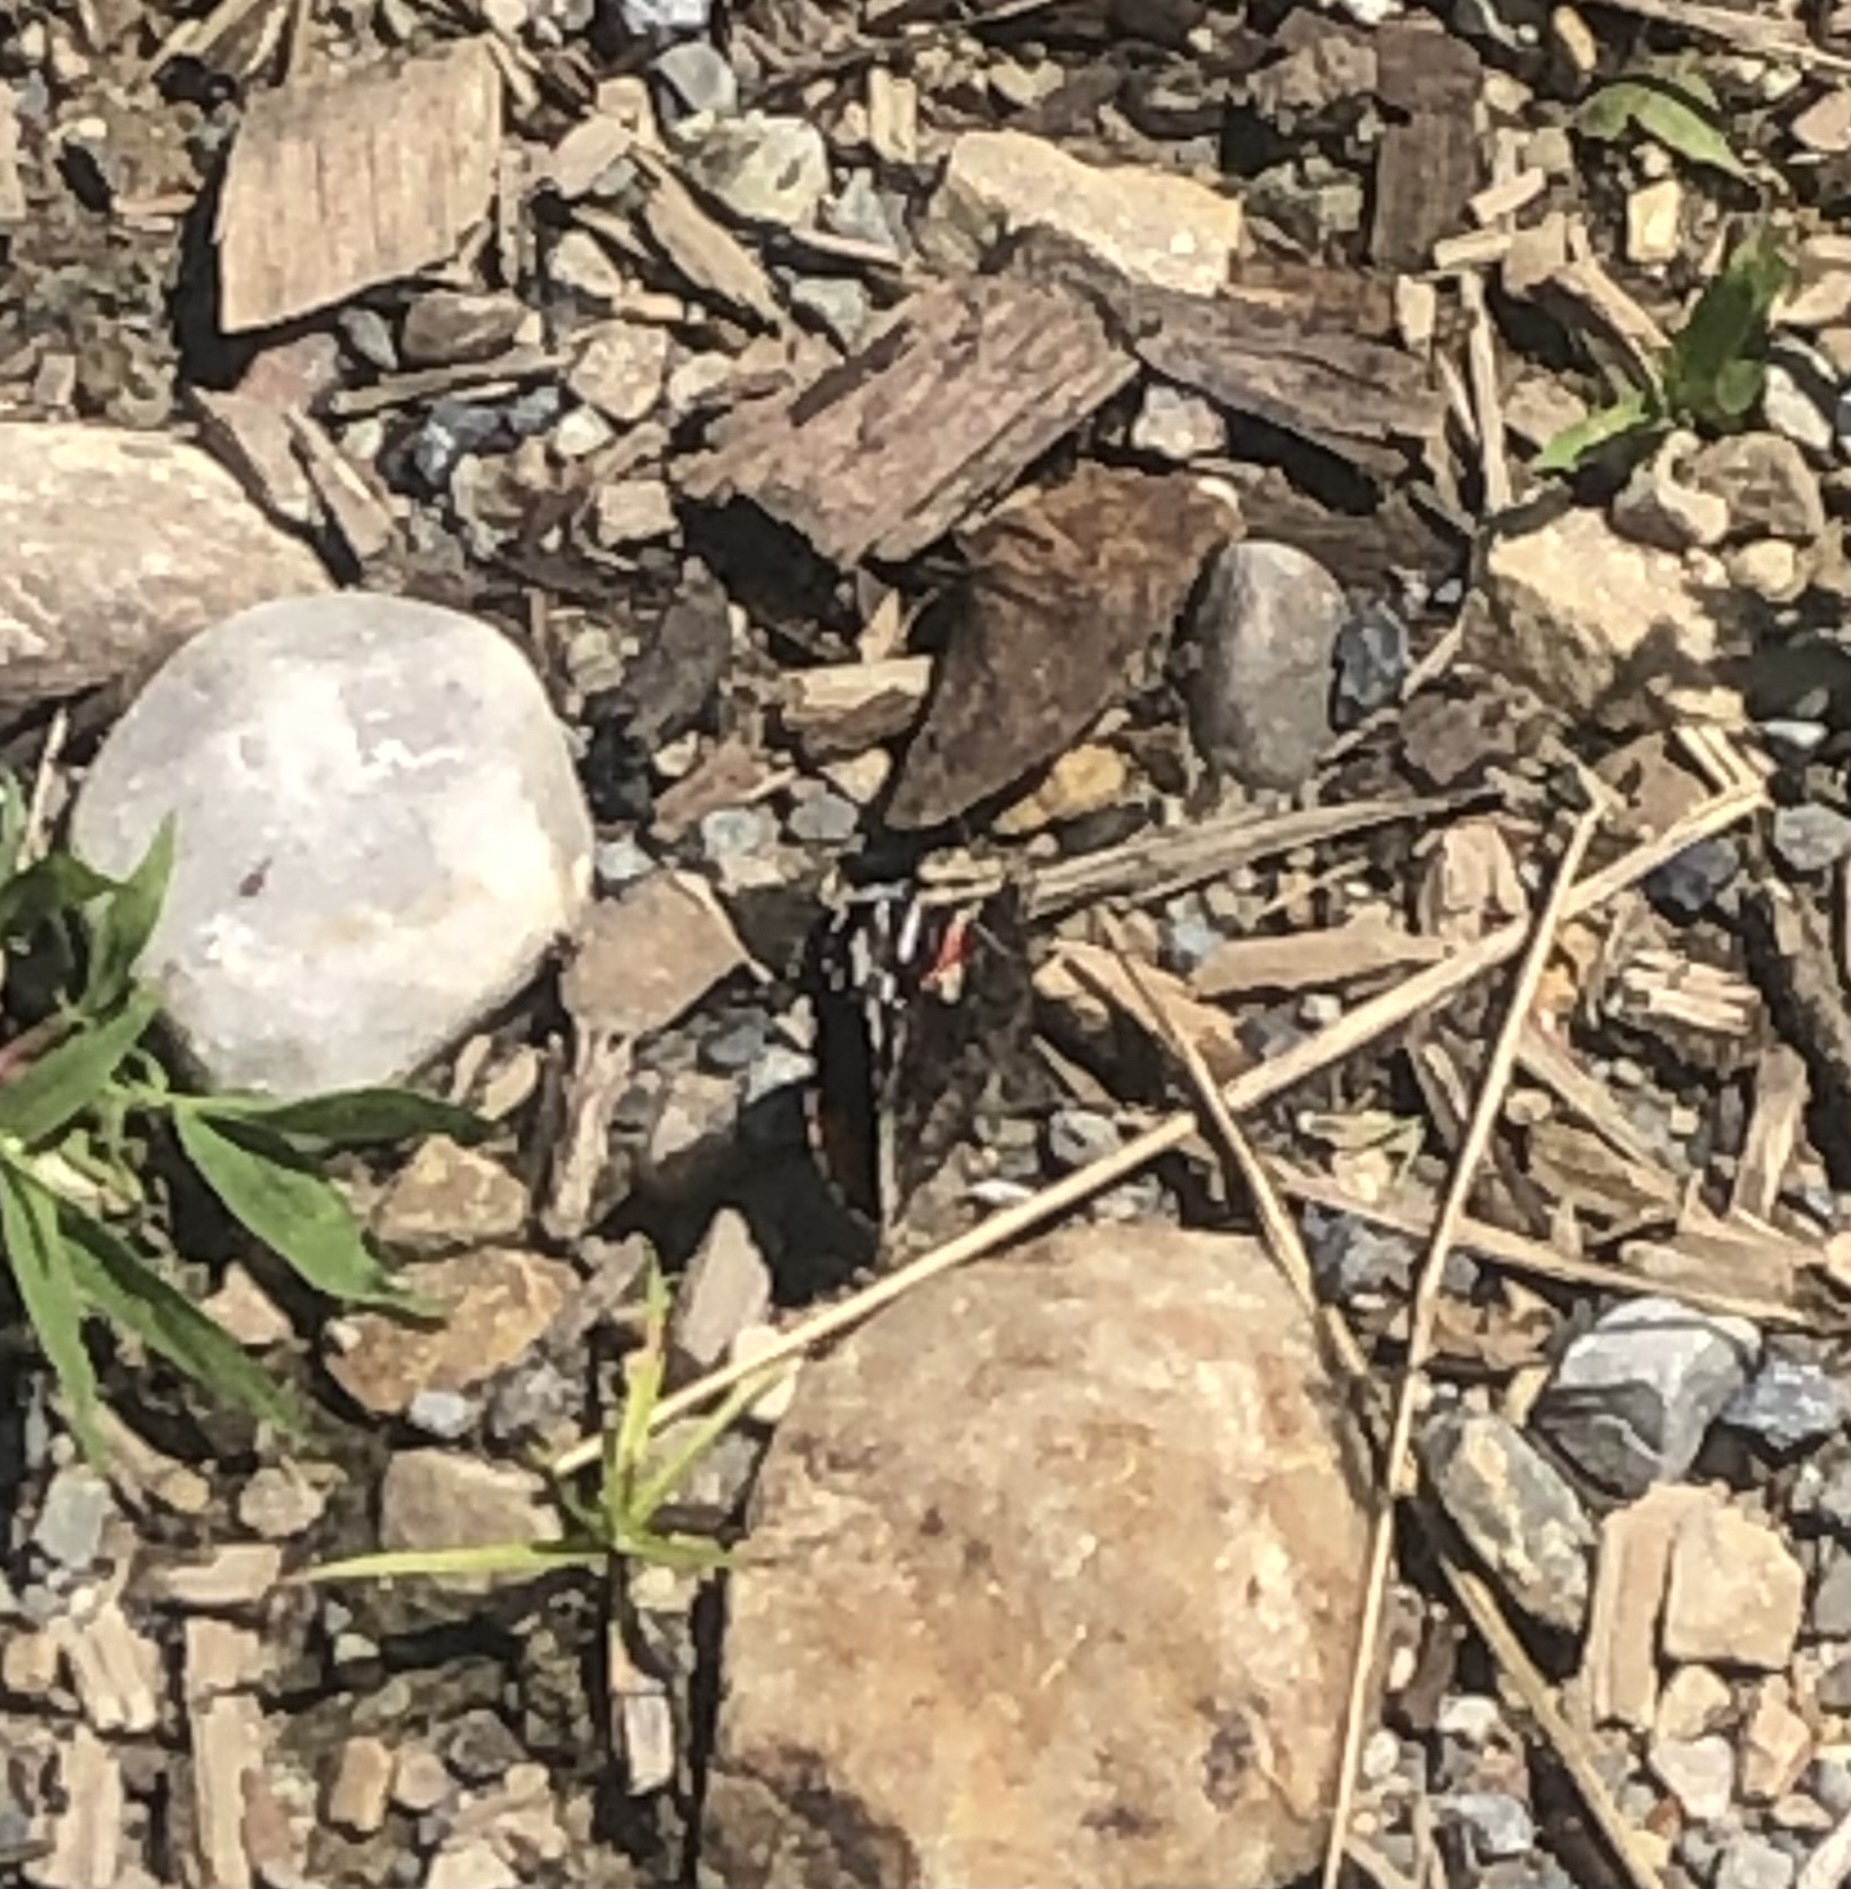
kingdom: Animalia
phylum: Arthropoda
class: Insecta
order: Lepidoptera
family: Nymphalidae
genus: Vanessa
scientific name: Vanessa atalanta
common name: Red admiral
